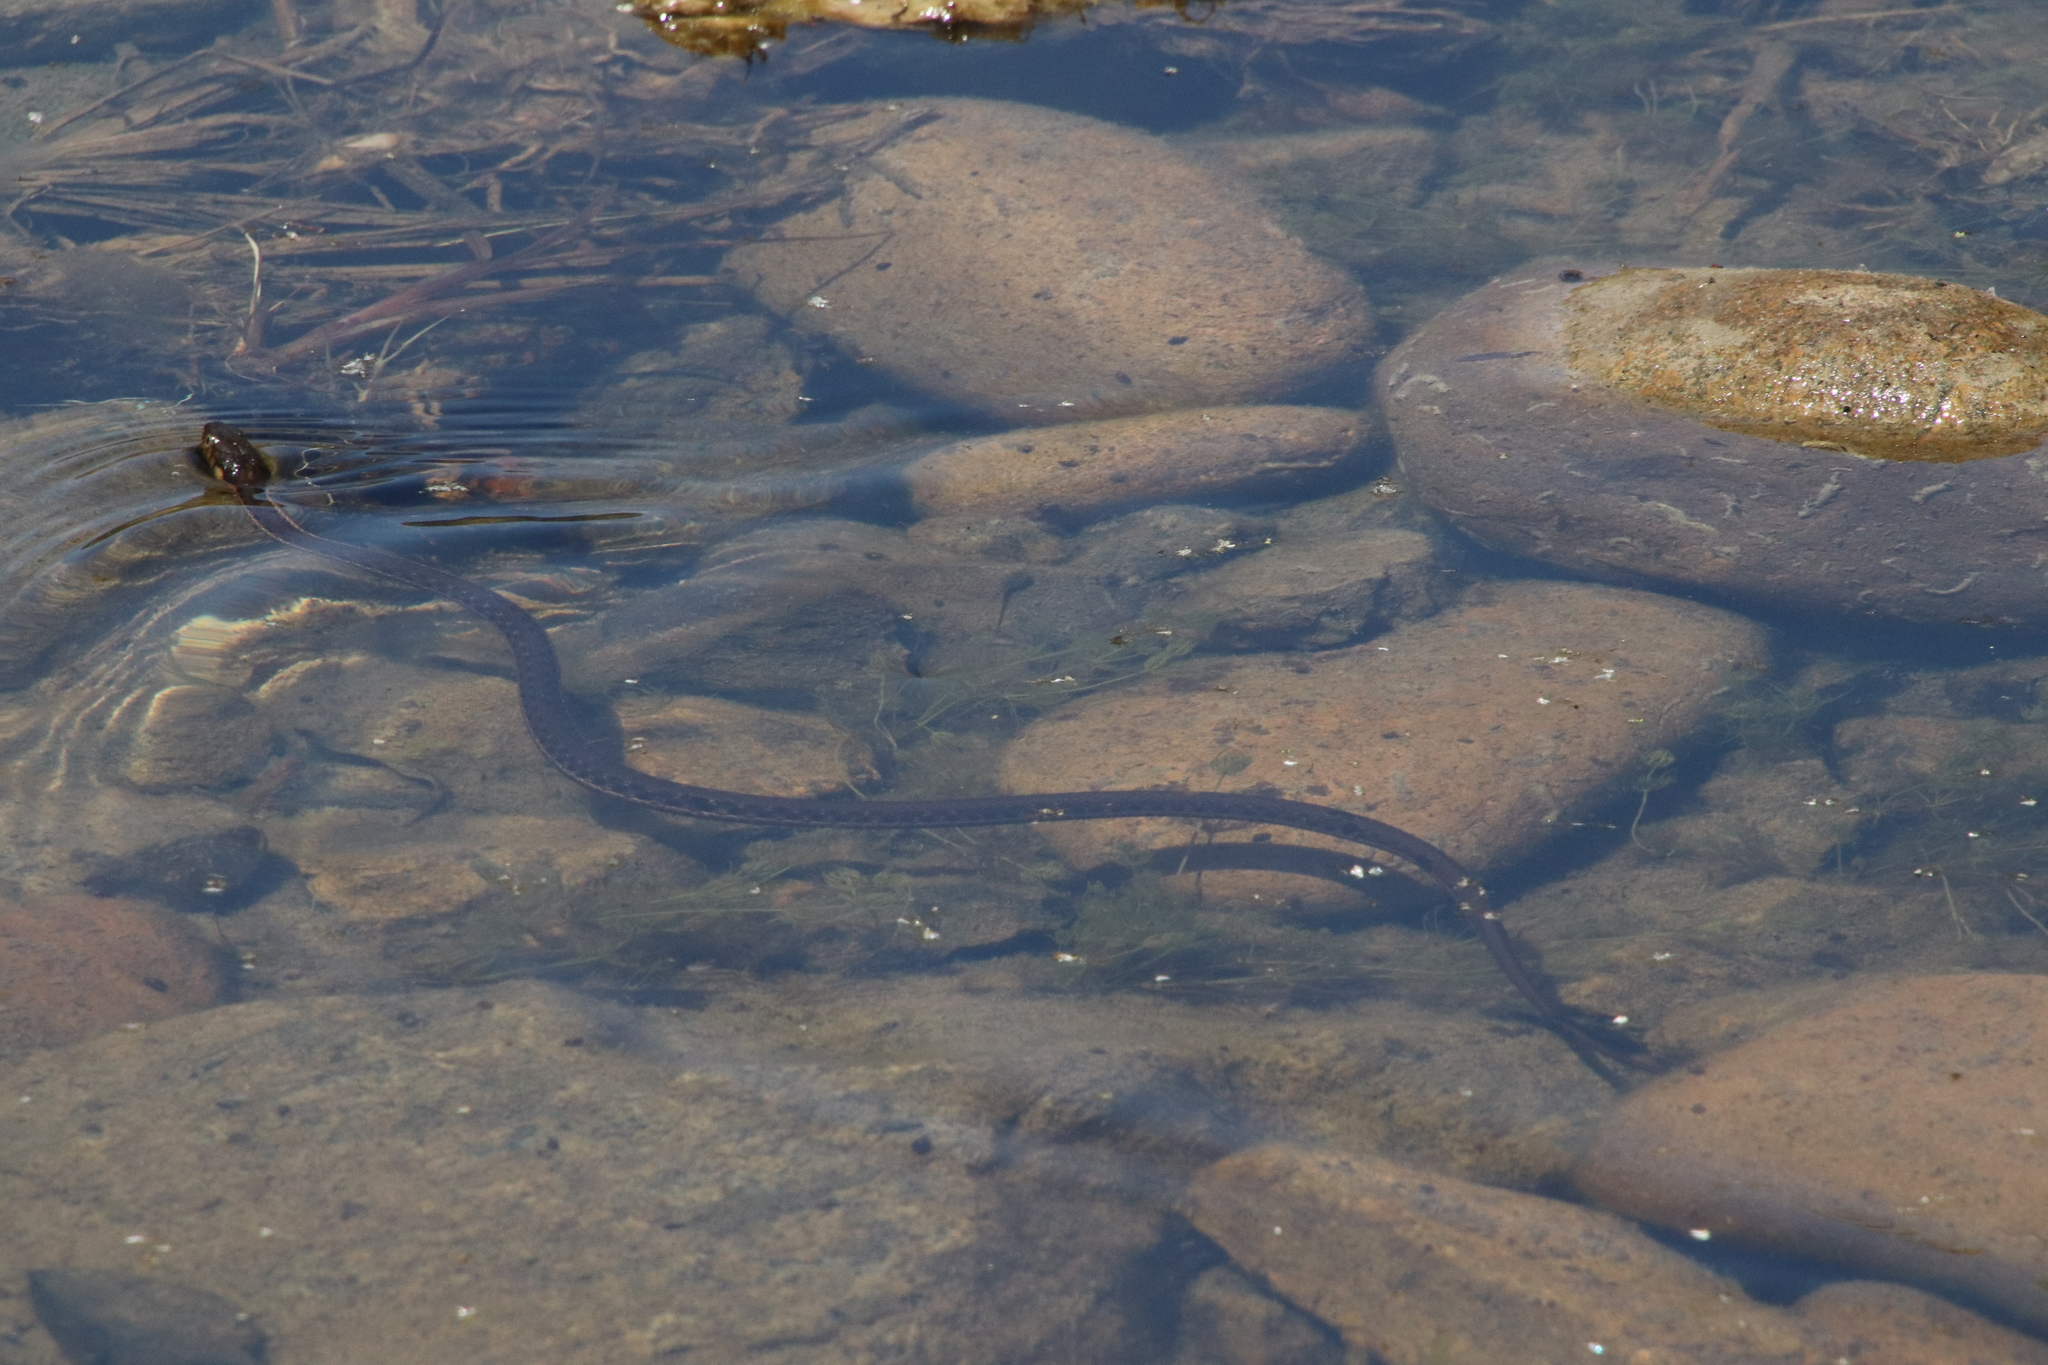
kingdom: Animalia
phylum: Chordata
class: Squamata
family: Colubridae
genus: Thamnophis
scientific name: Thamnophis hammondii
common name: Two-striped garter snake
